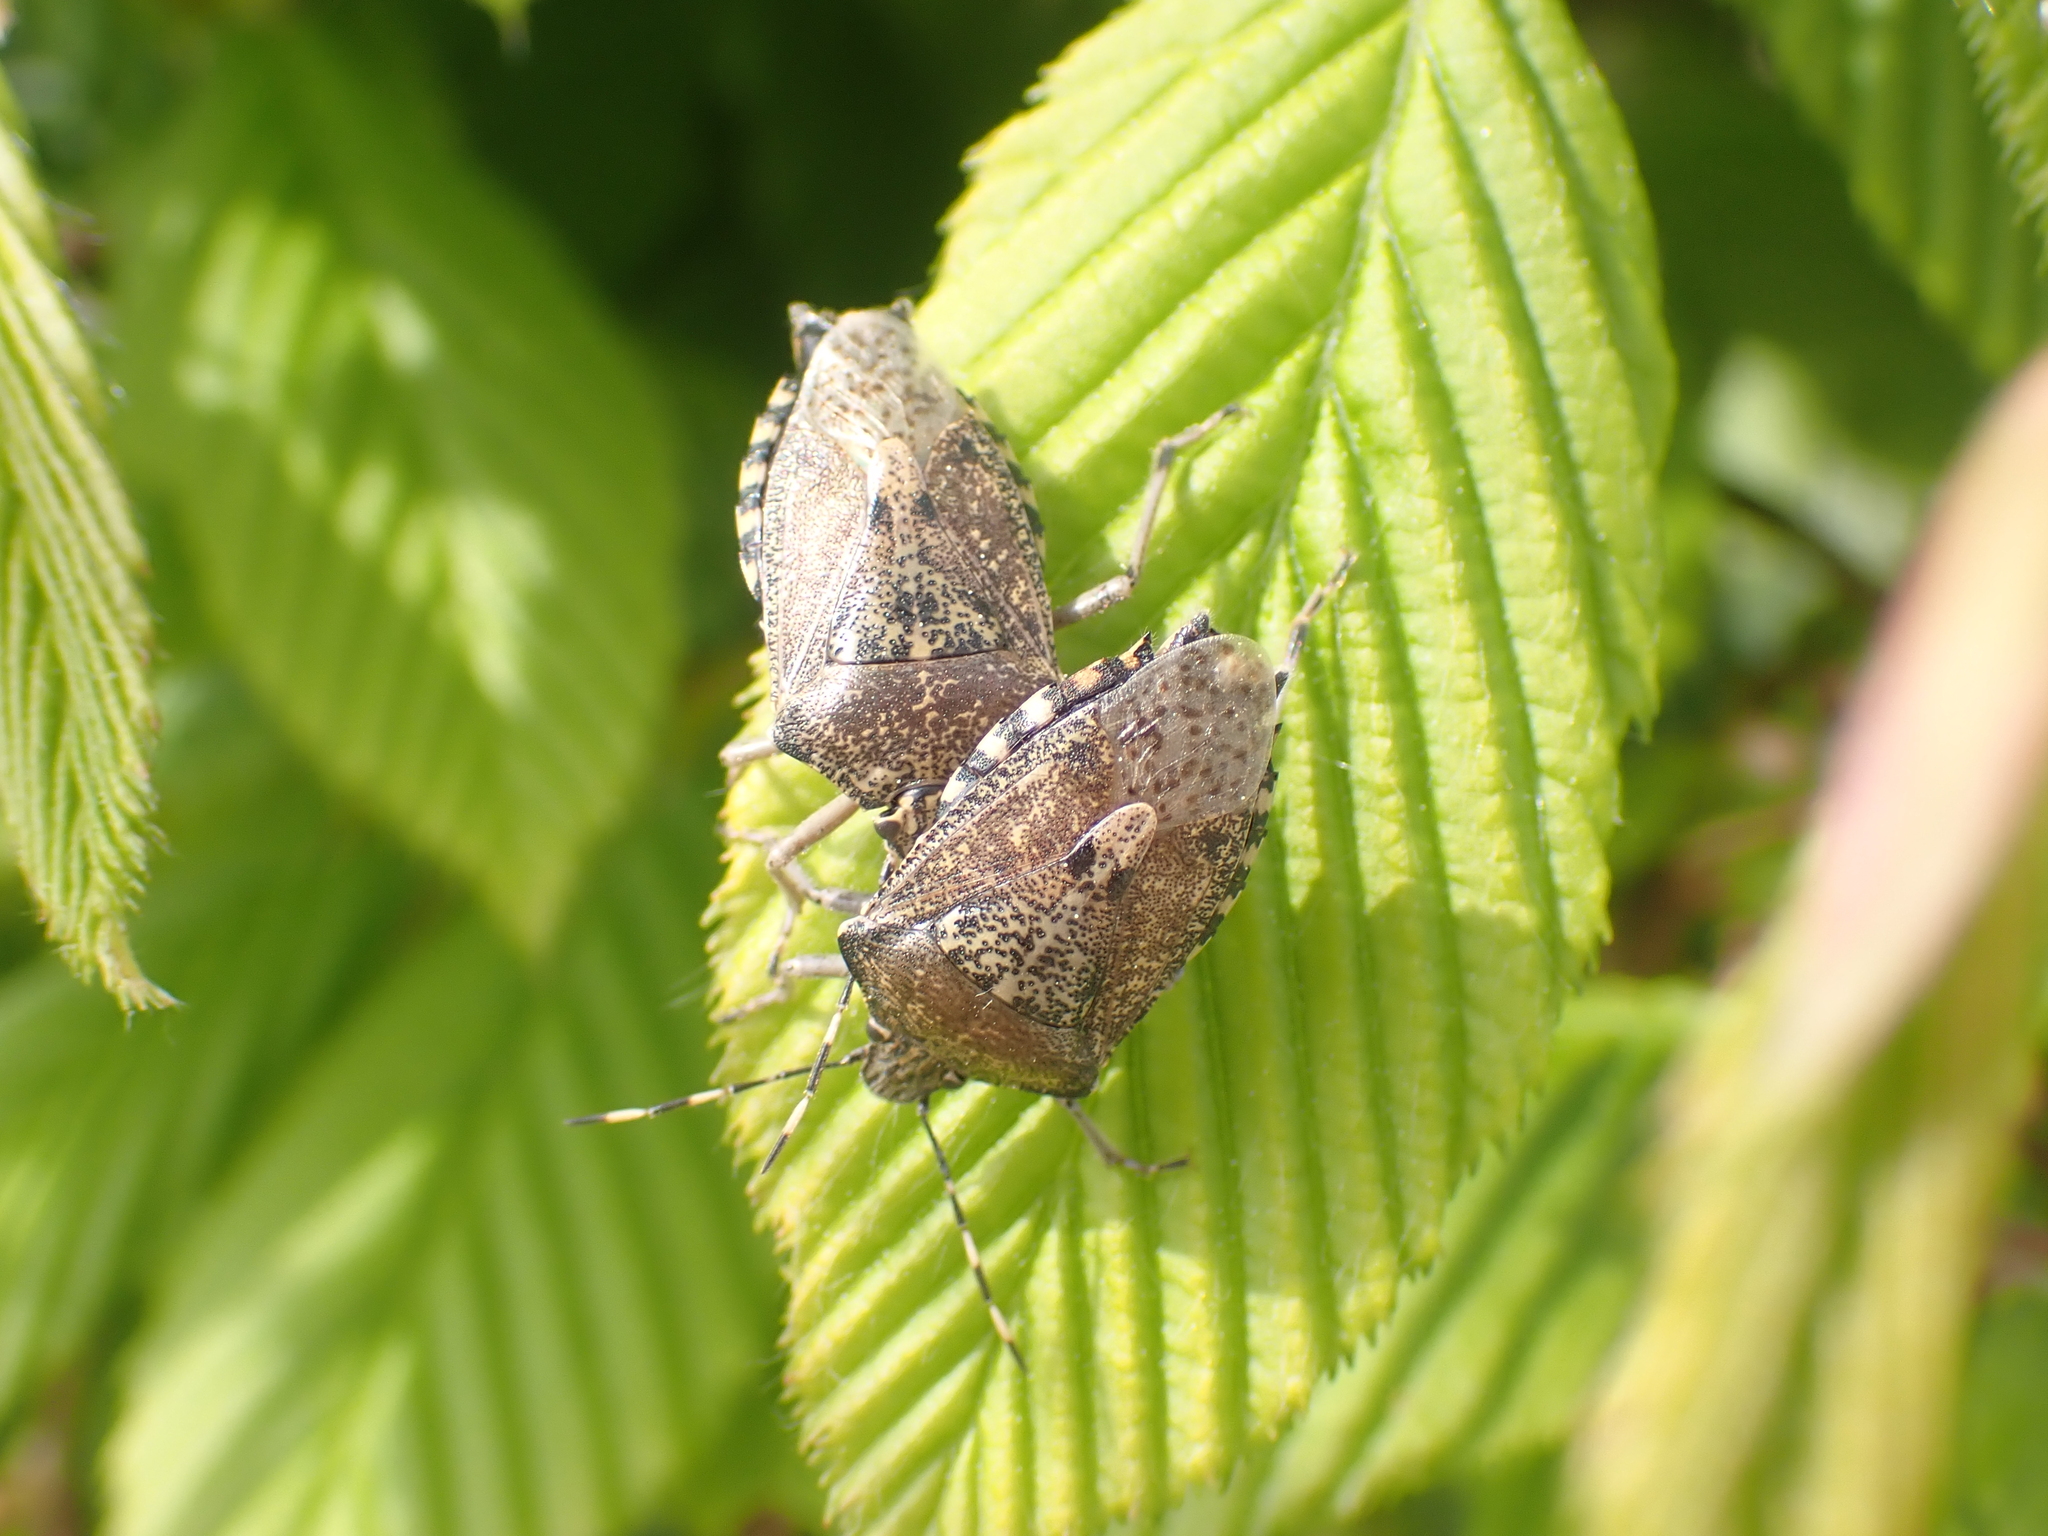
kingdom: Animalia
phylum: Arthropoda
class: Insecta
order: Hemiptera
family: Pentatomidae
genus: Rhaphigaster
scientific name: Rhaphigaster nebulosa
